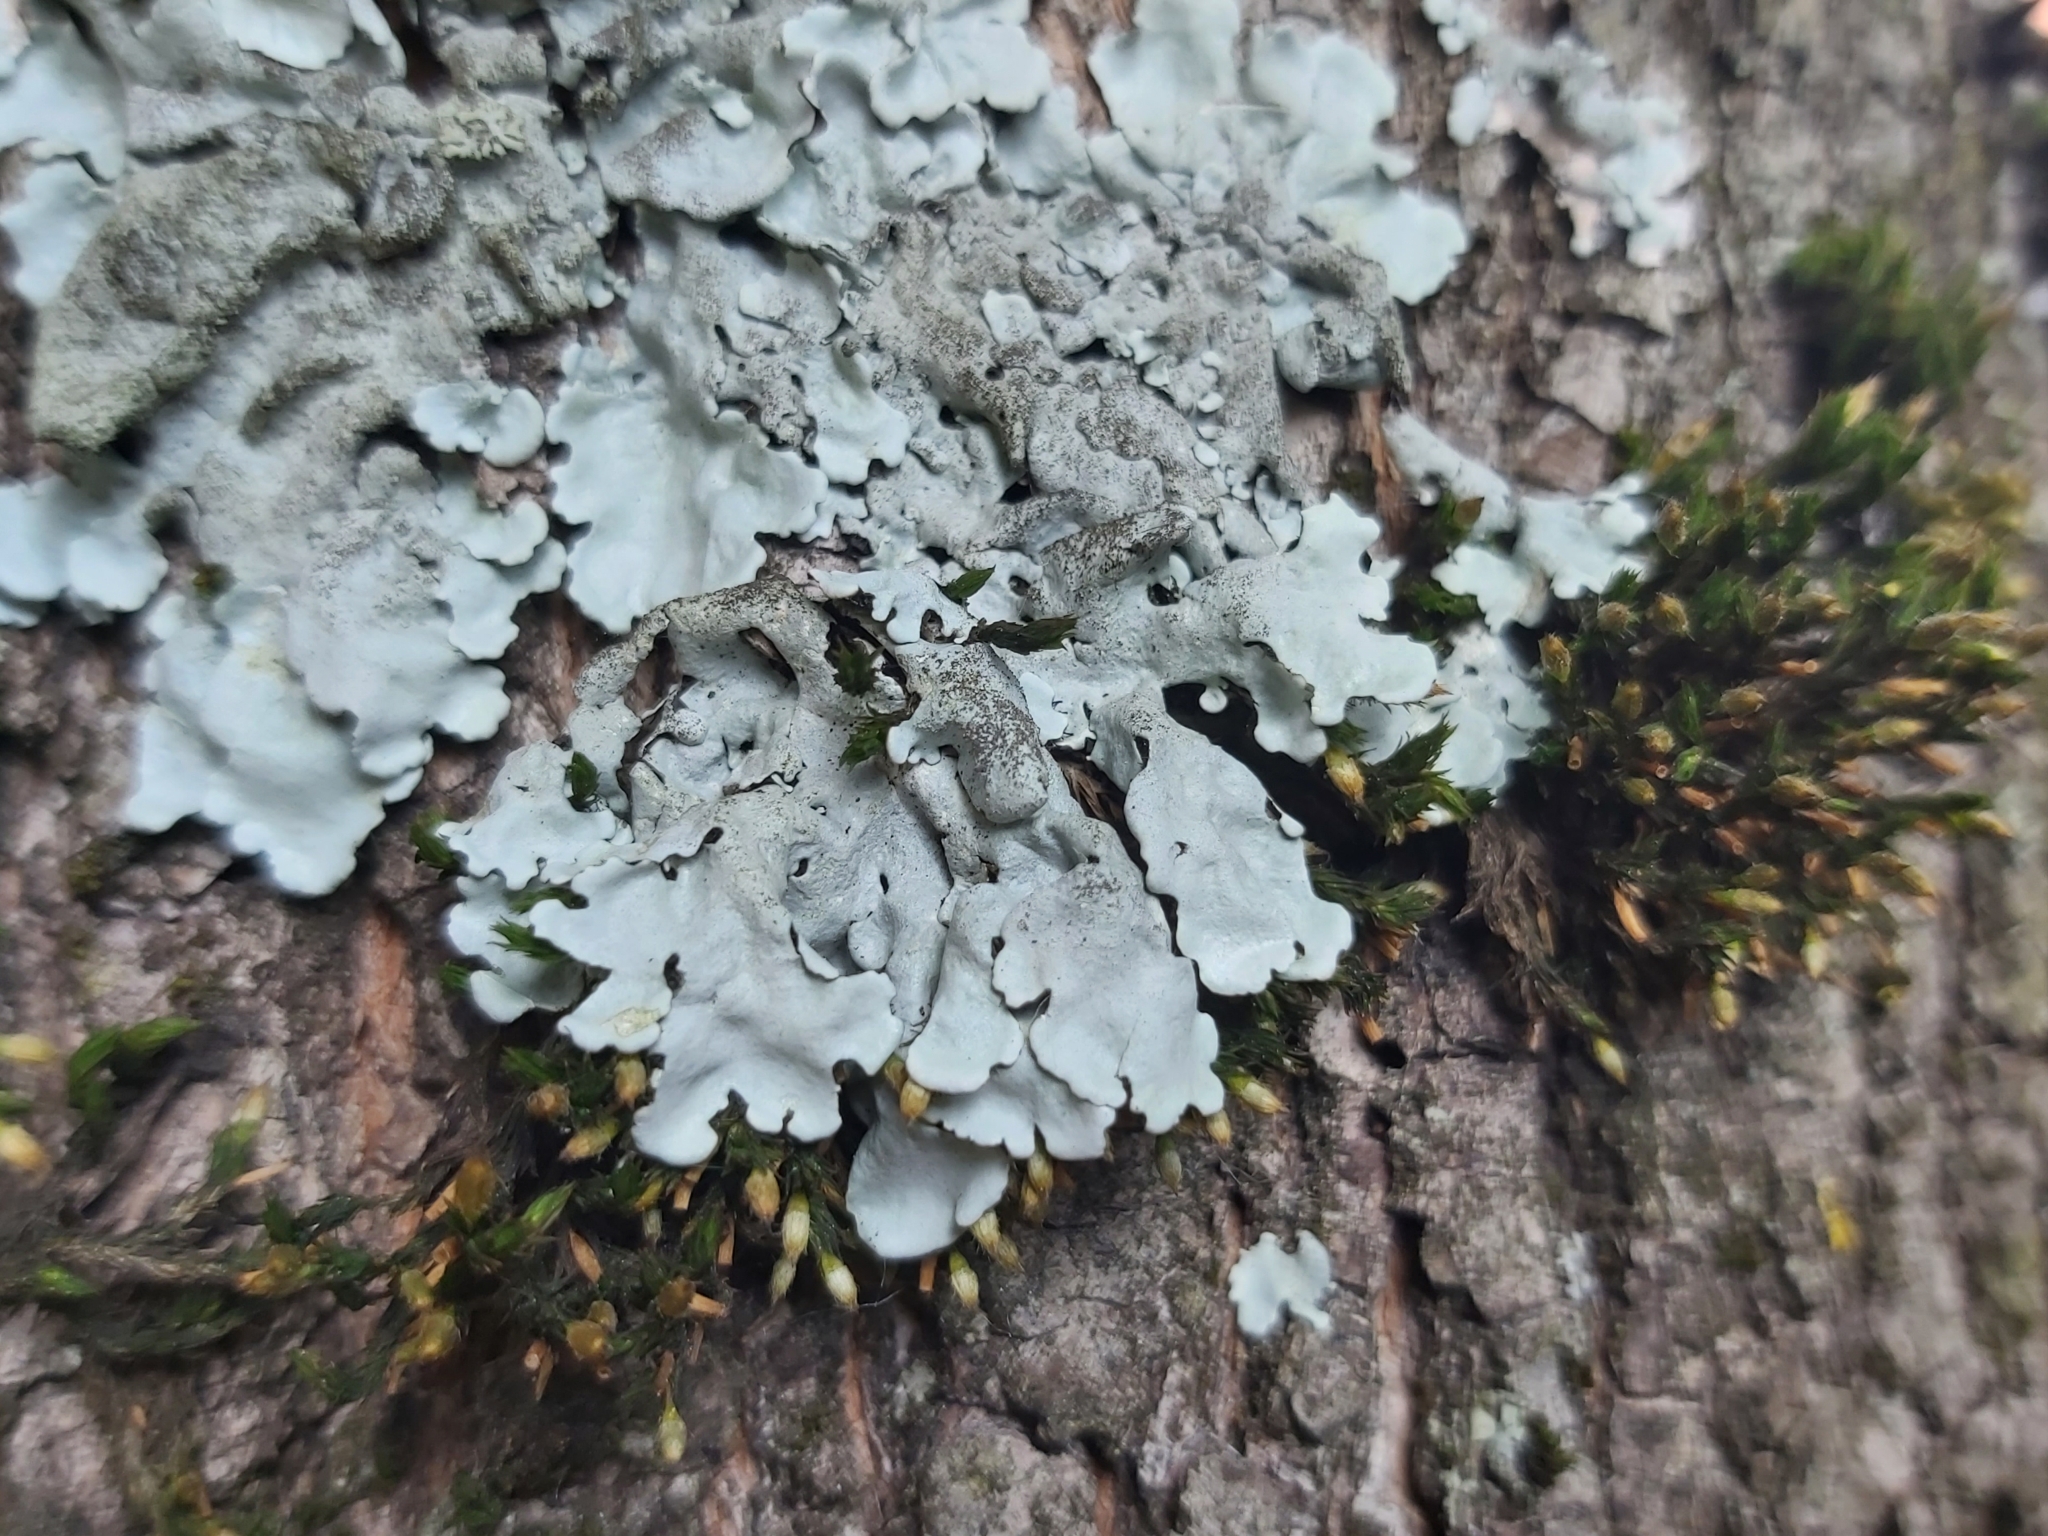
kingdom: Fungi
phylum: Ascomycota
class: Lecanoromycetes
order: Lecanorales
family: Parmeliaceae
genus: Parmelina
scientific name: Parmelina tiliacea
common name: Linden shield lichen
